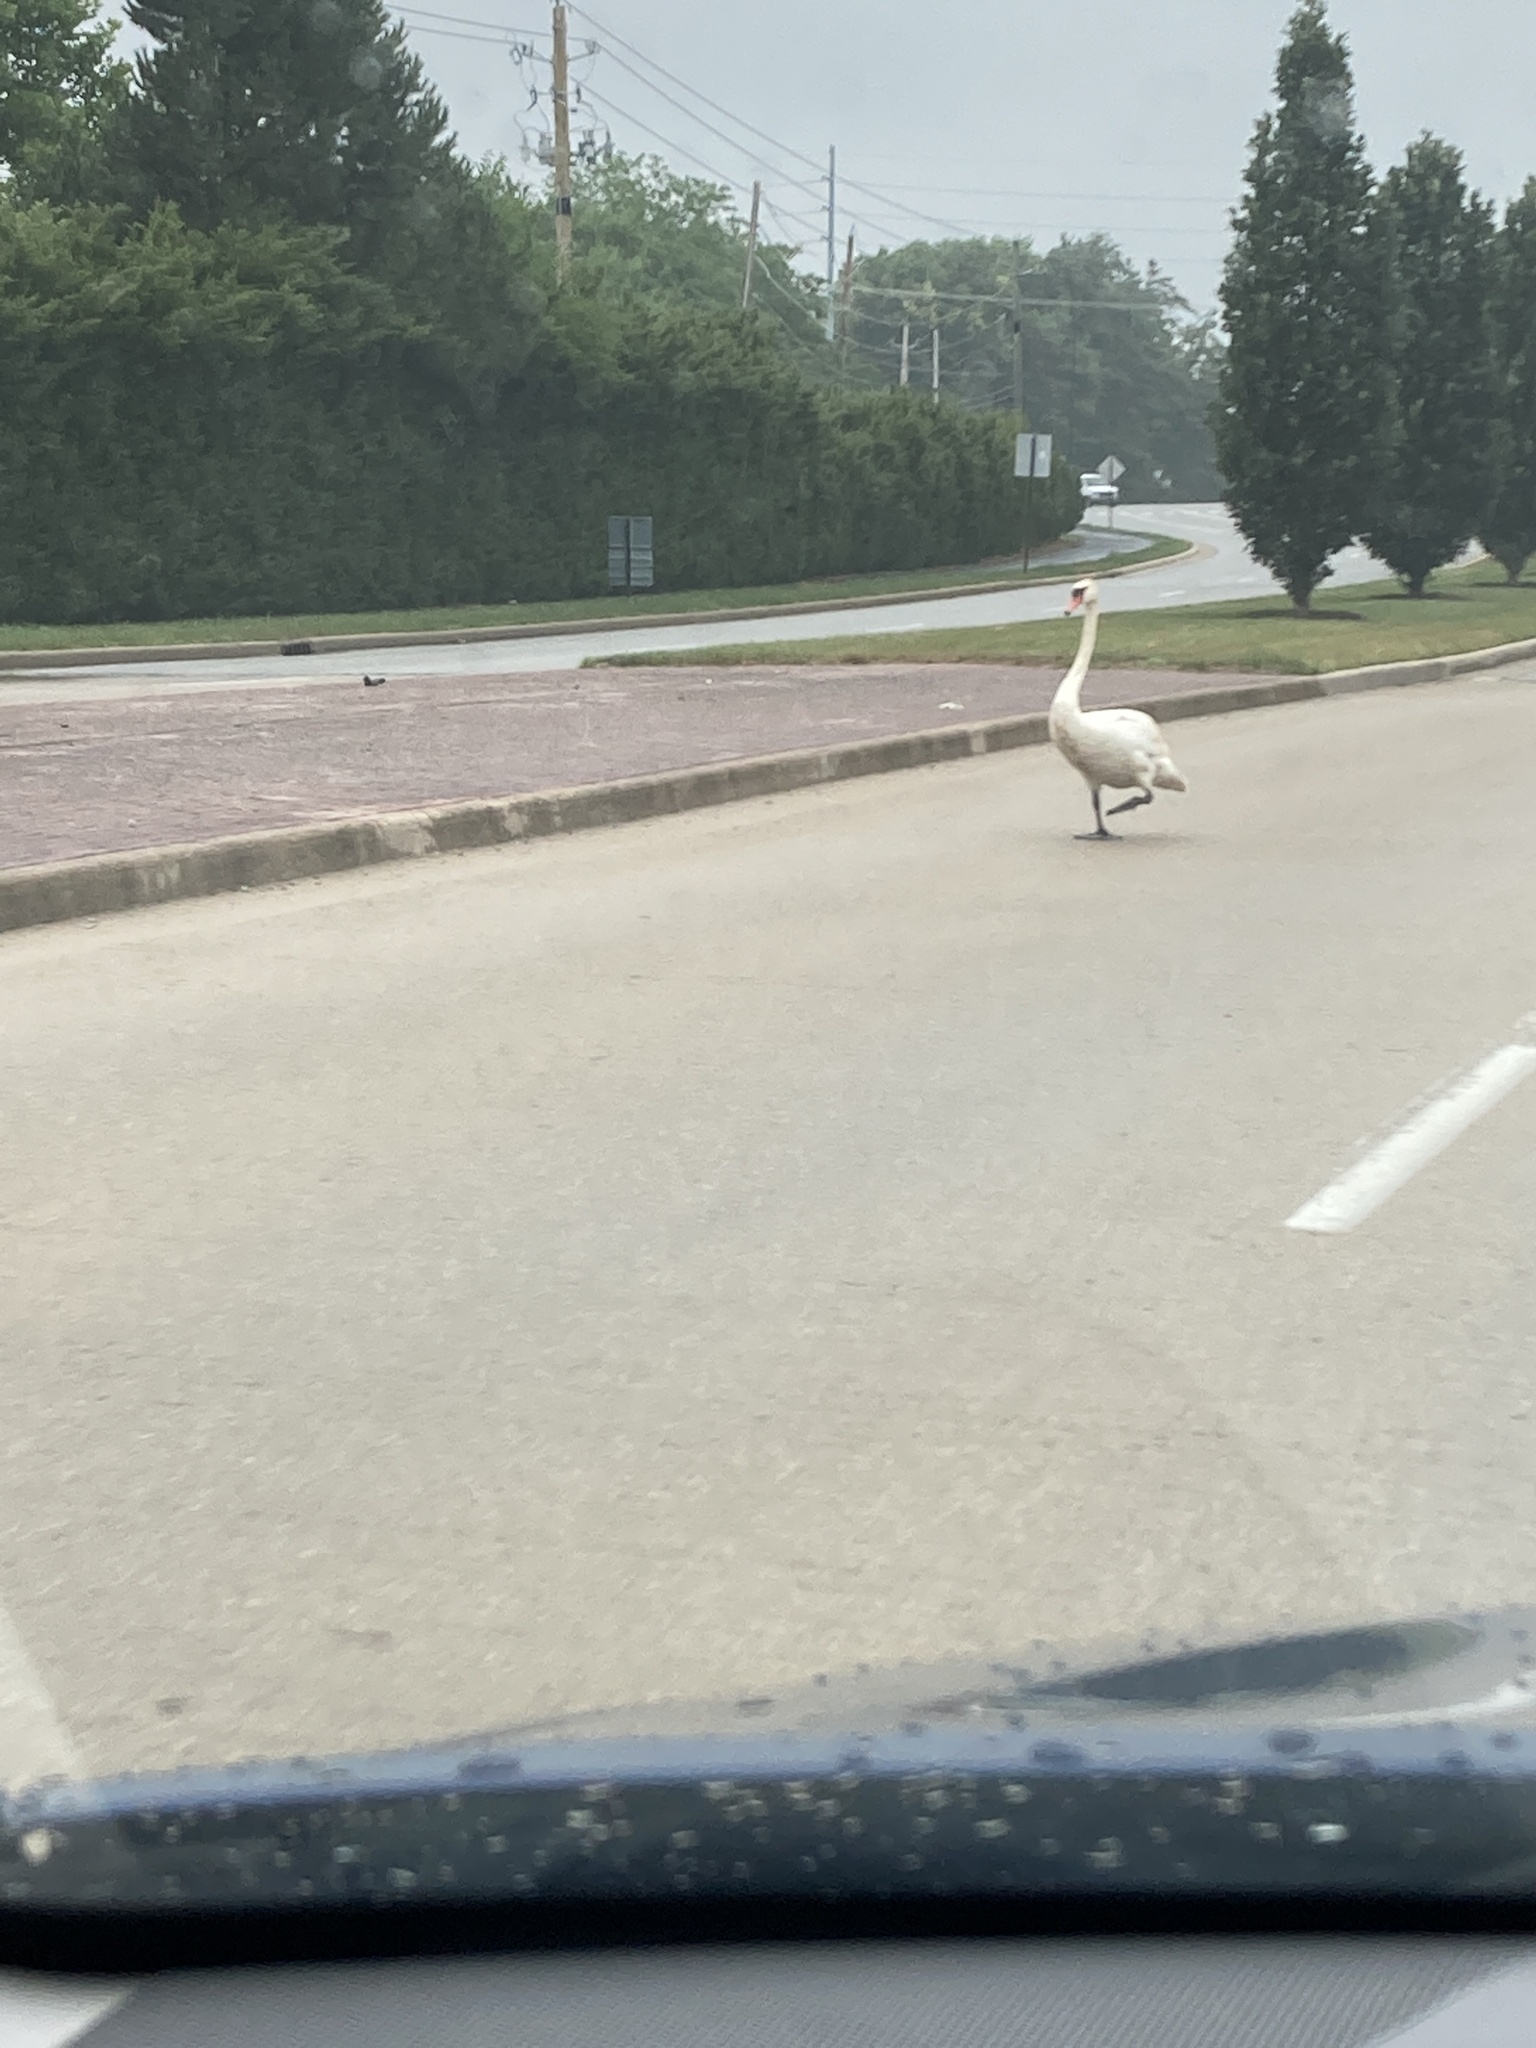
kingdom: Animalia
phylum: Chordata
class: Aves
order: Anseriformes
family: Anatidae
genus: Cygnus
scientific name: Cygnus olor
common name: Mute swan
